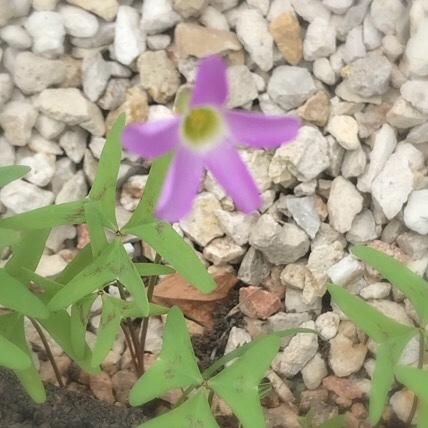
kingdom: Plantae
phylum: Tracheophyta
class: Magnoliopsida
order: Oxalidales
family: Oxalidaceae
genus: Oxalis
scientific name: Oxalis drummondii
